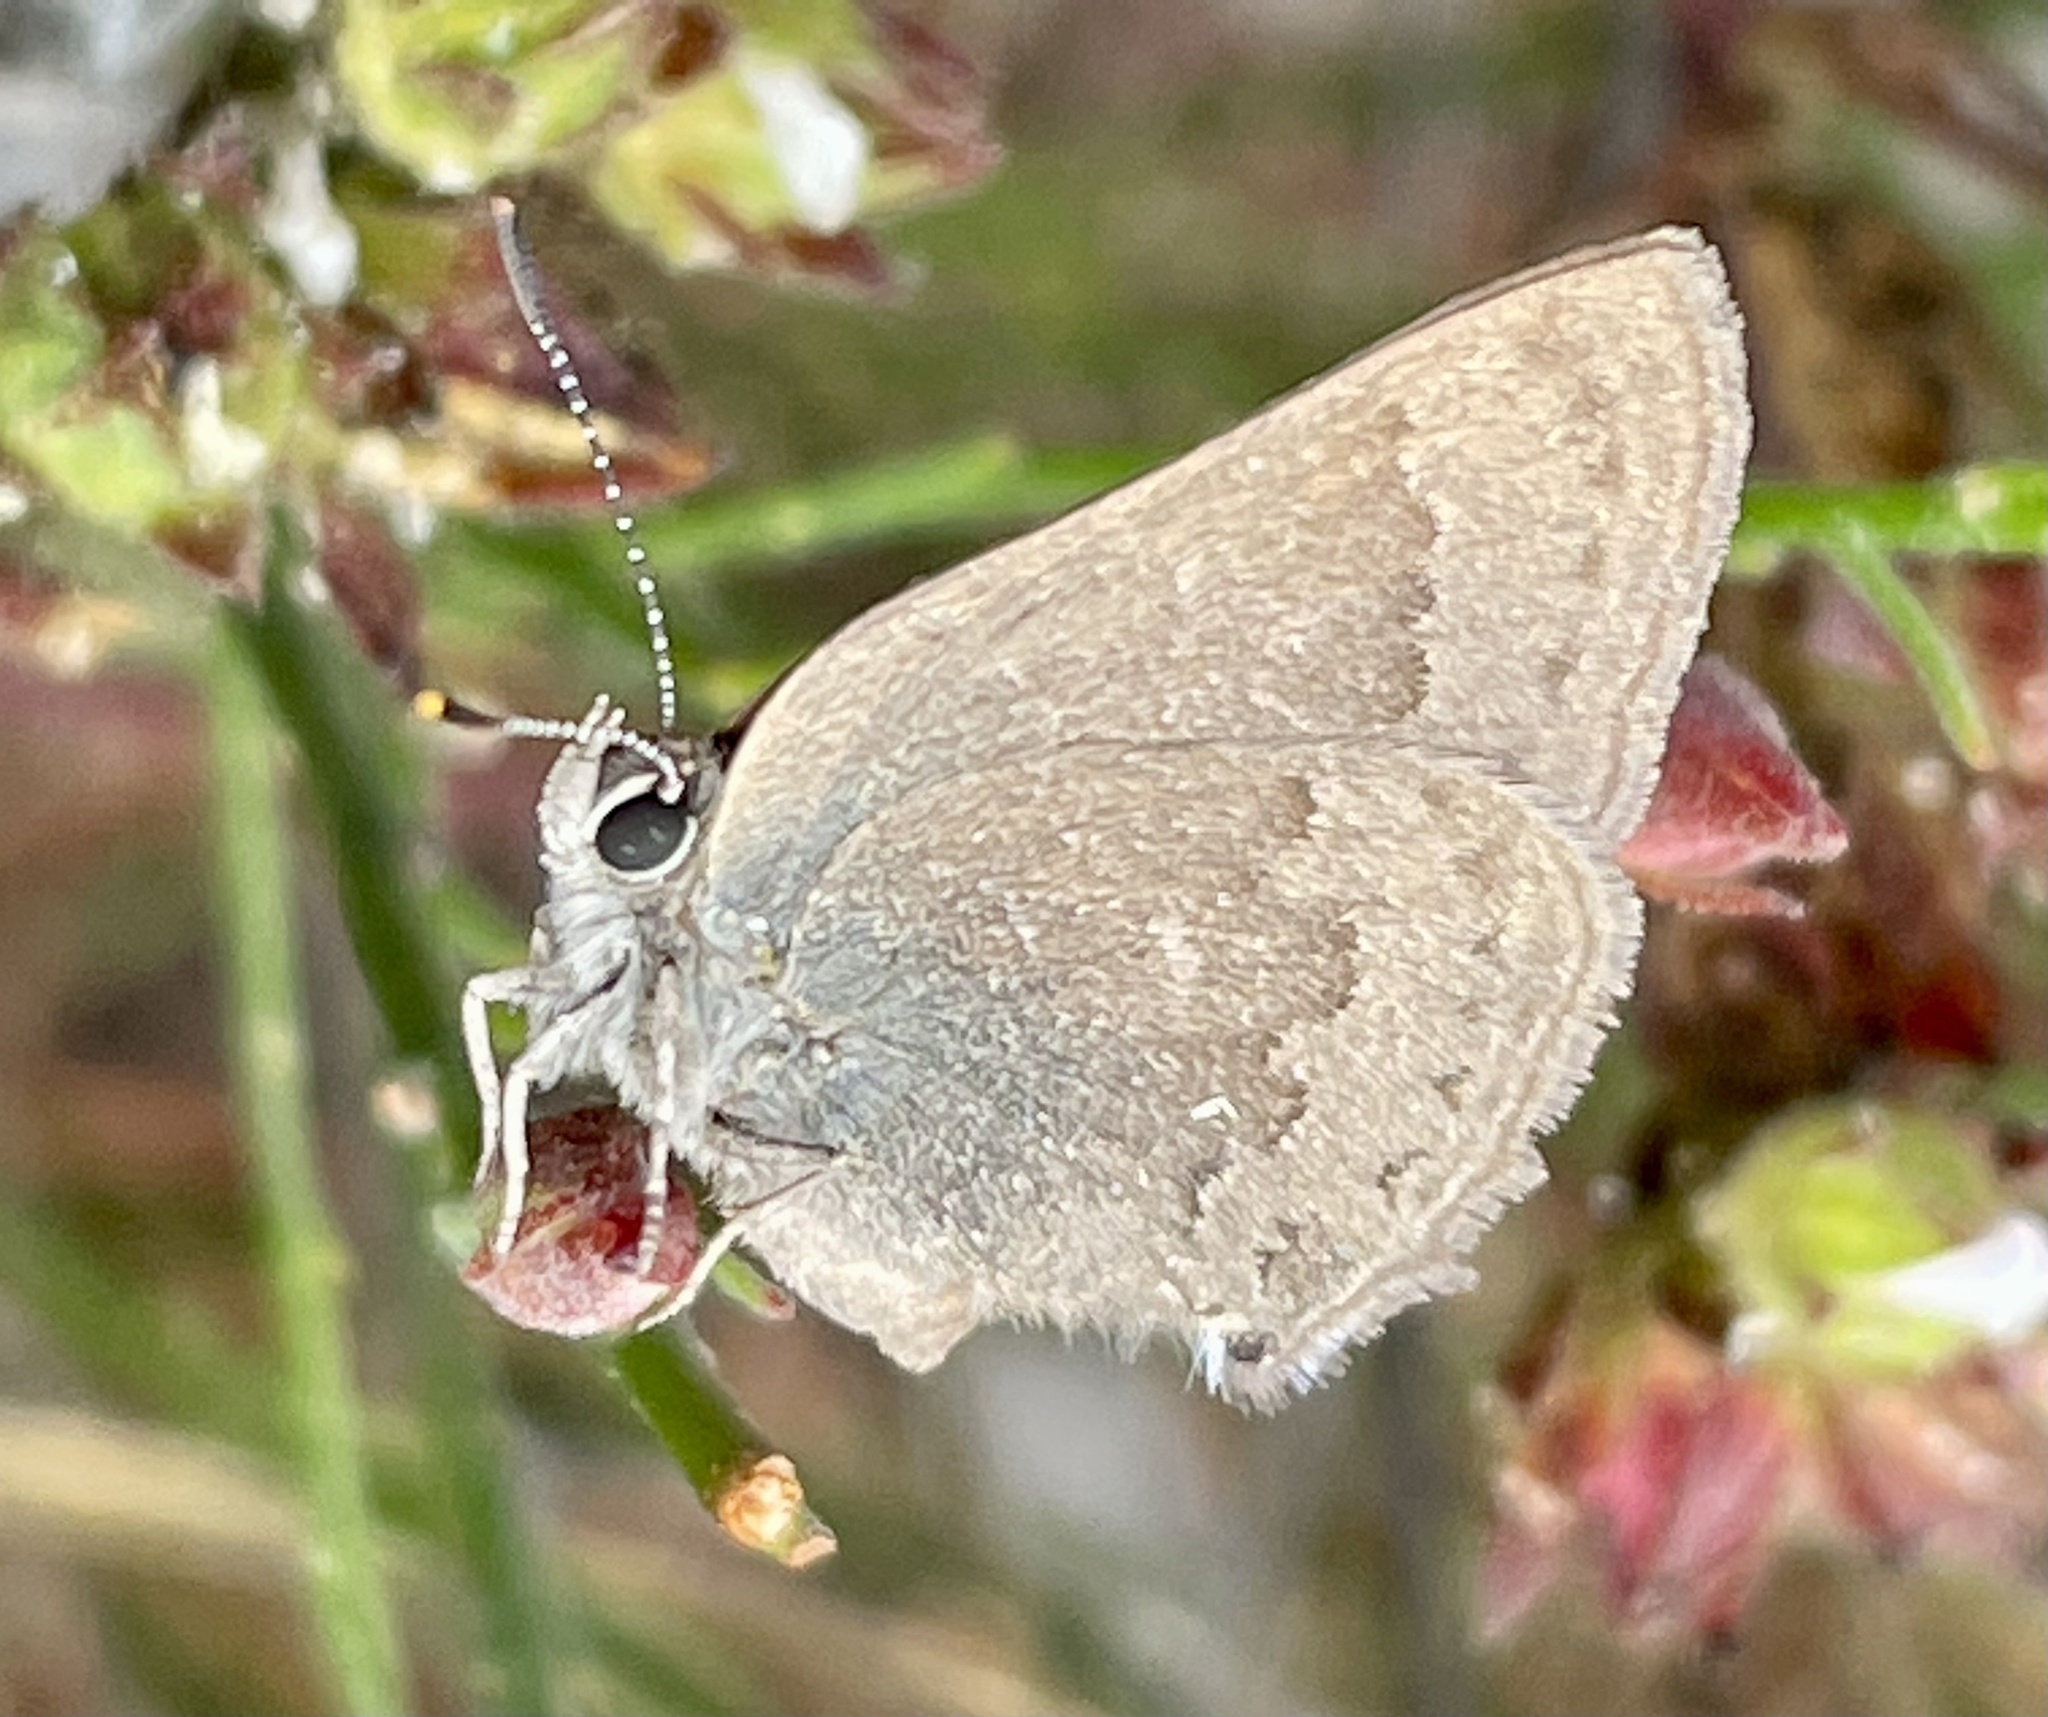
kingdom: Animalia
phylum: Arthropoda
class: Insecta
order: Lepidoptera
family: Lycaenidae
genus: Strymon
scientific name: Strymon saepium
